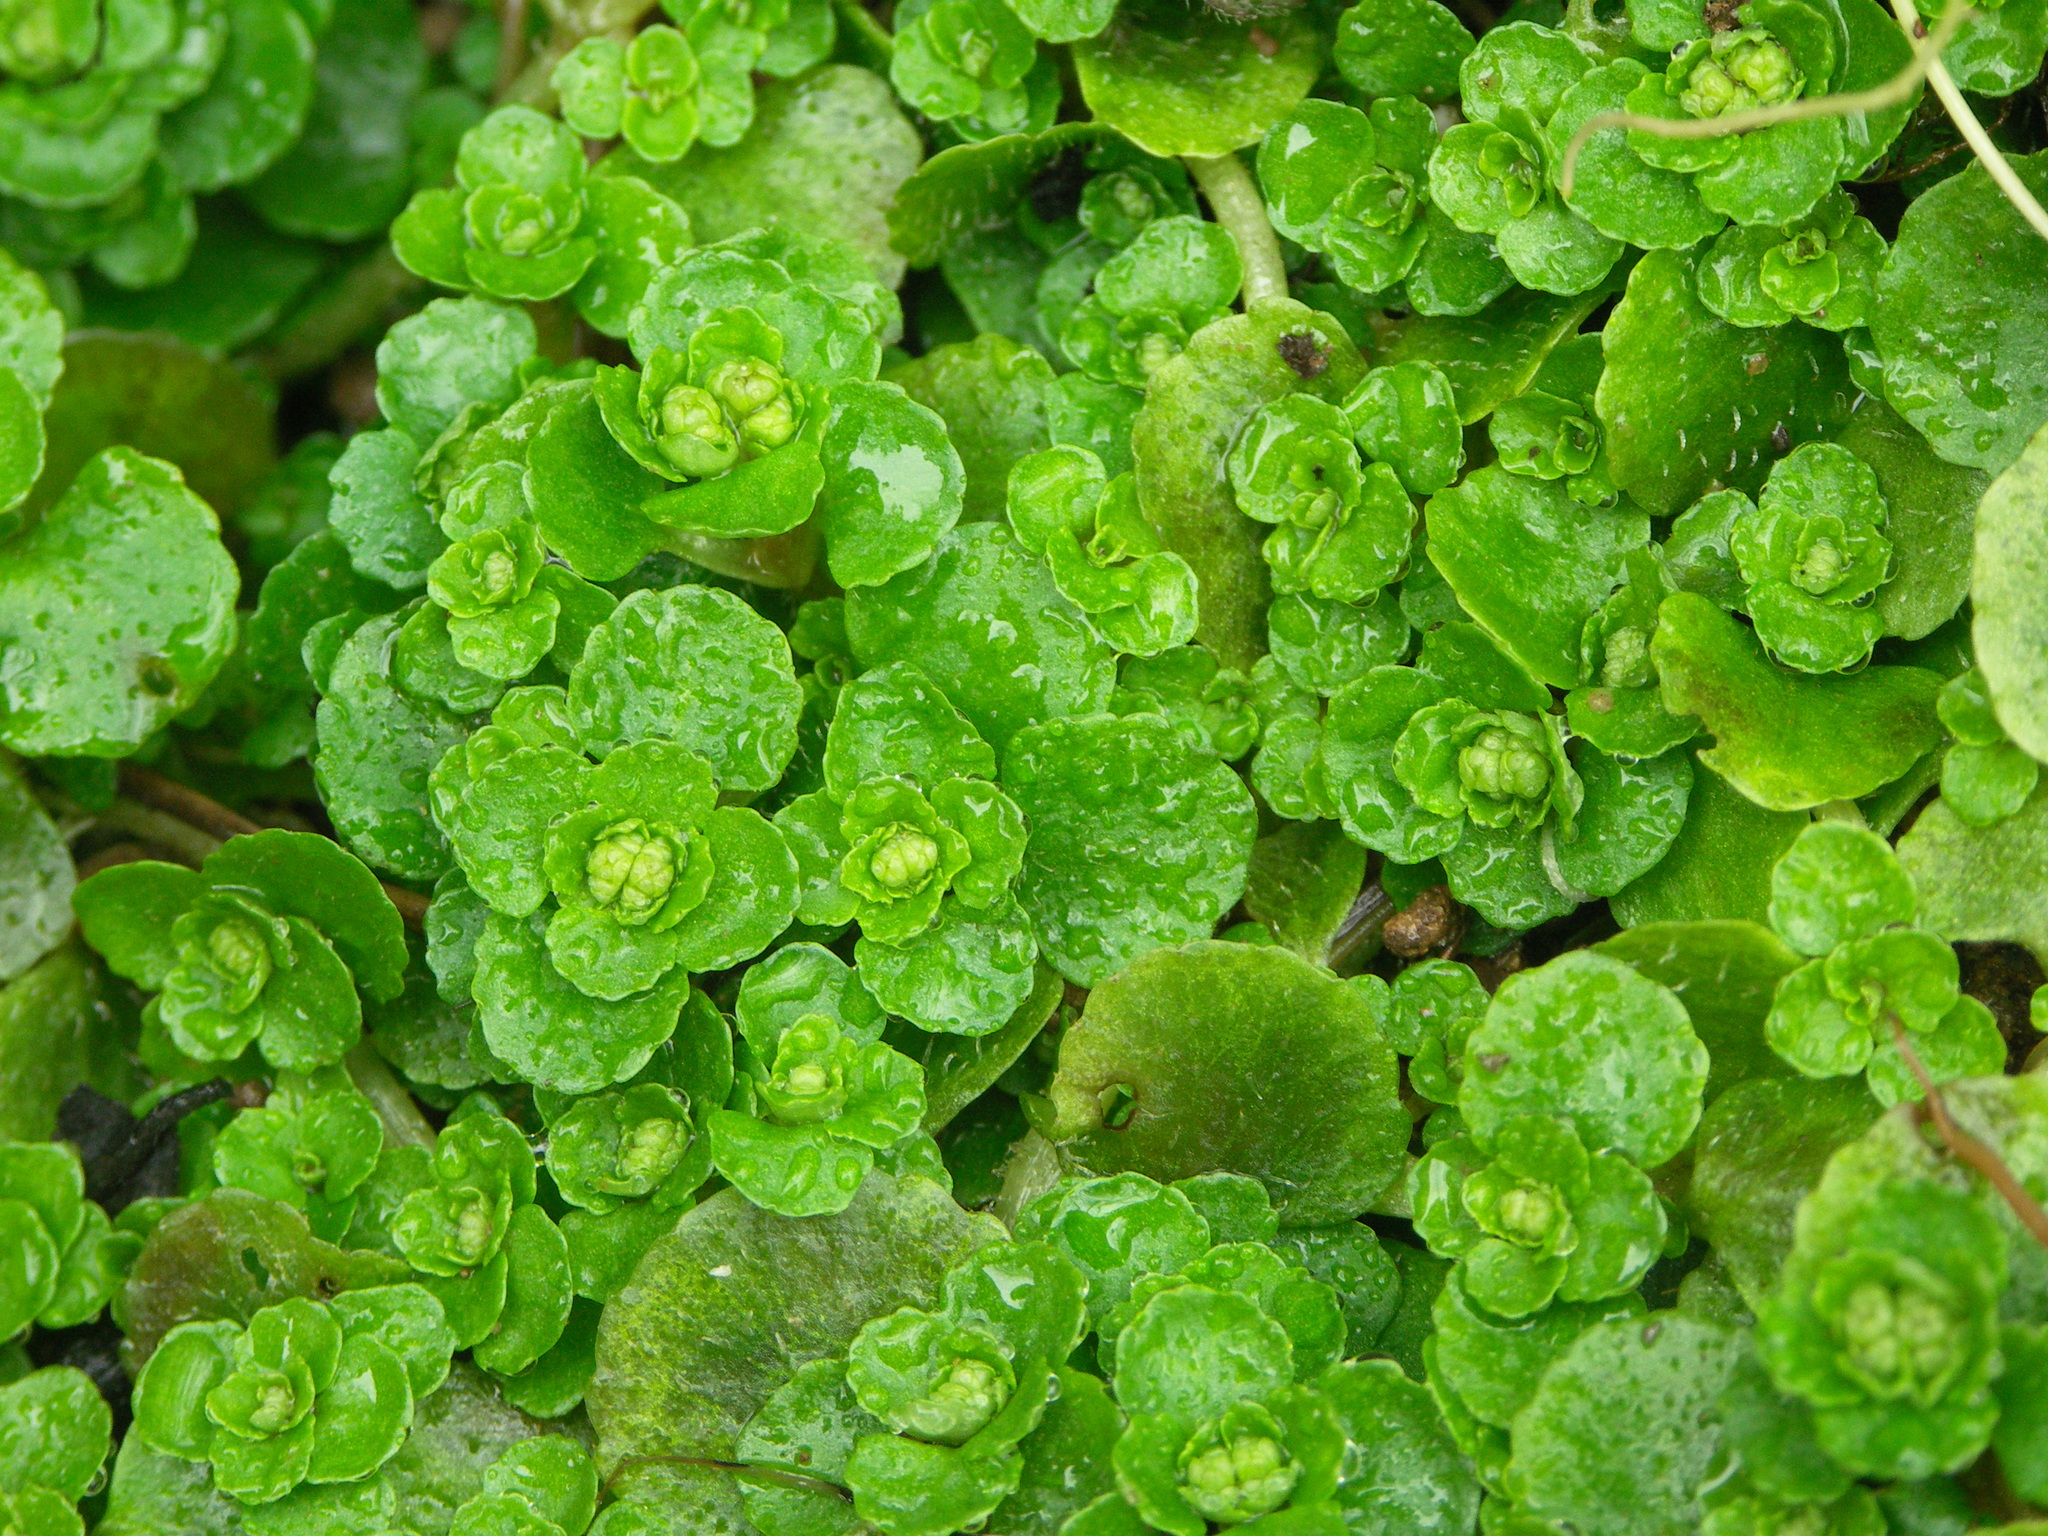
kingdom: Plantae
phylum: Tracheophyta
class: Magnoliopsida
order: Saxifragales
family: Saxifragaceae
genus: Chrysosplenium
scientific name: Chrysosplenium oppositifolium
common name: Opposite-leaved golden-saxifrage
